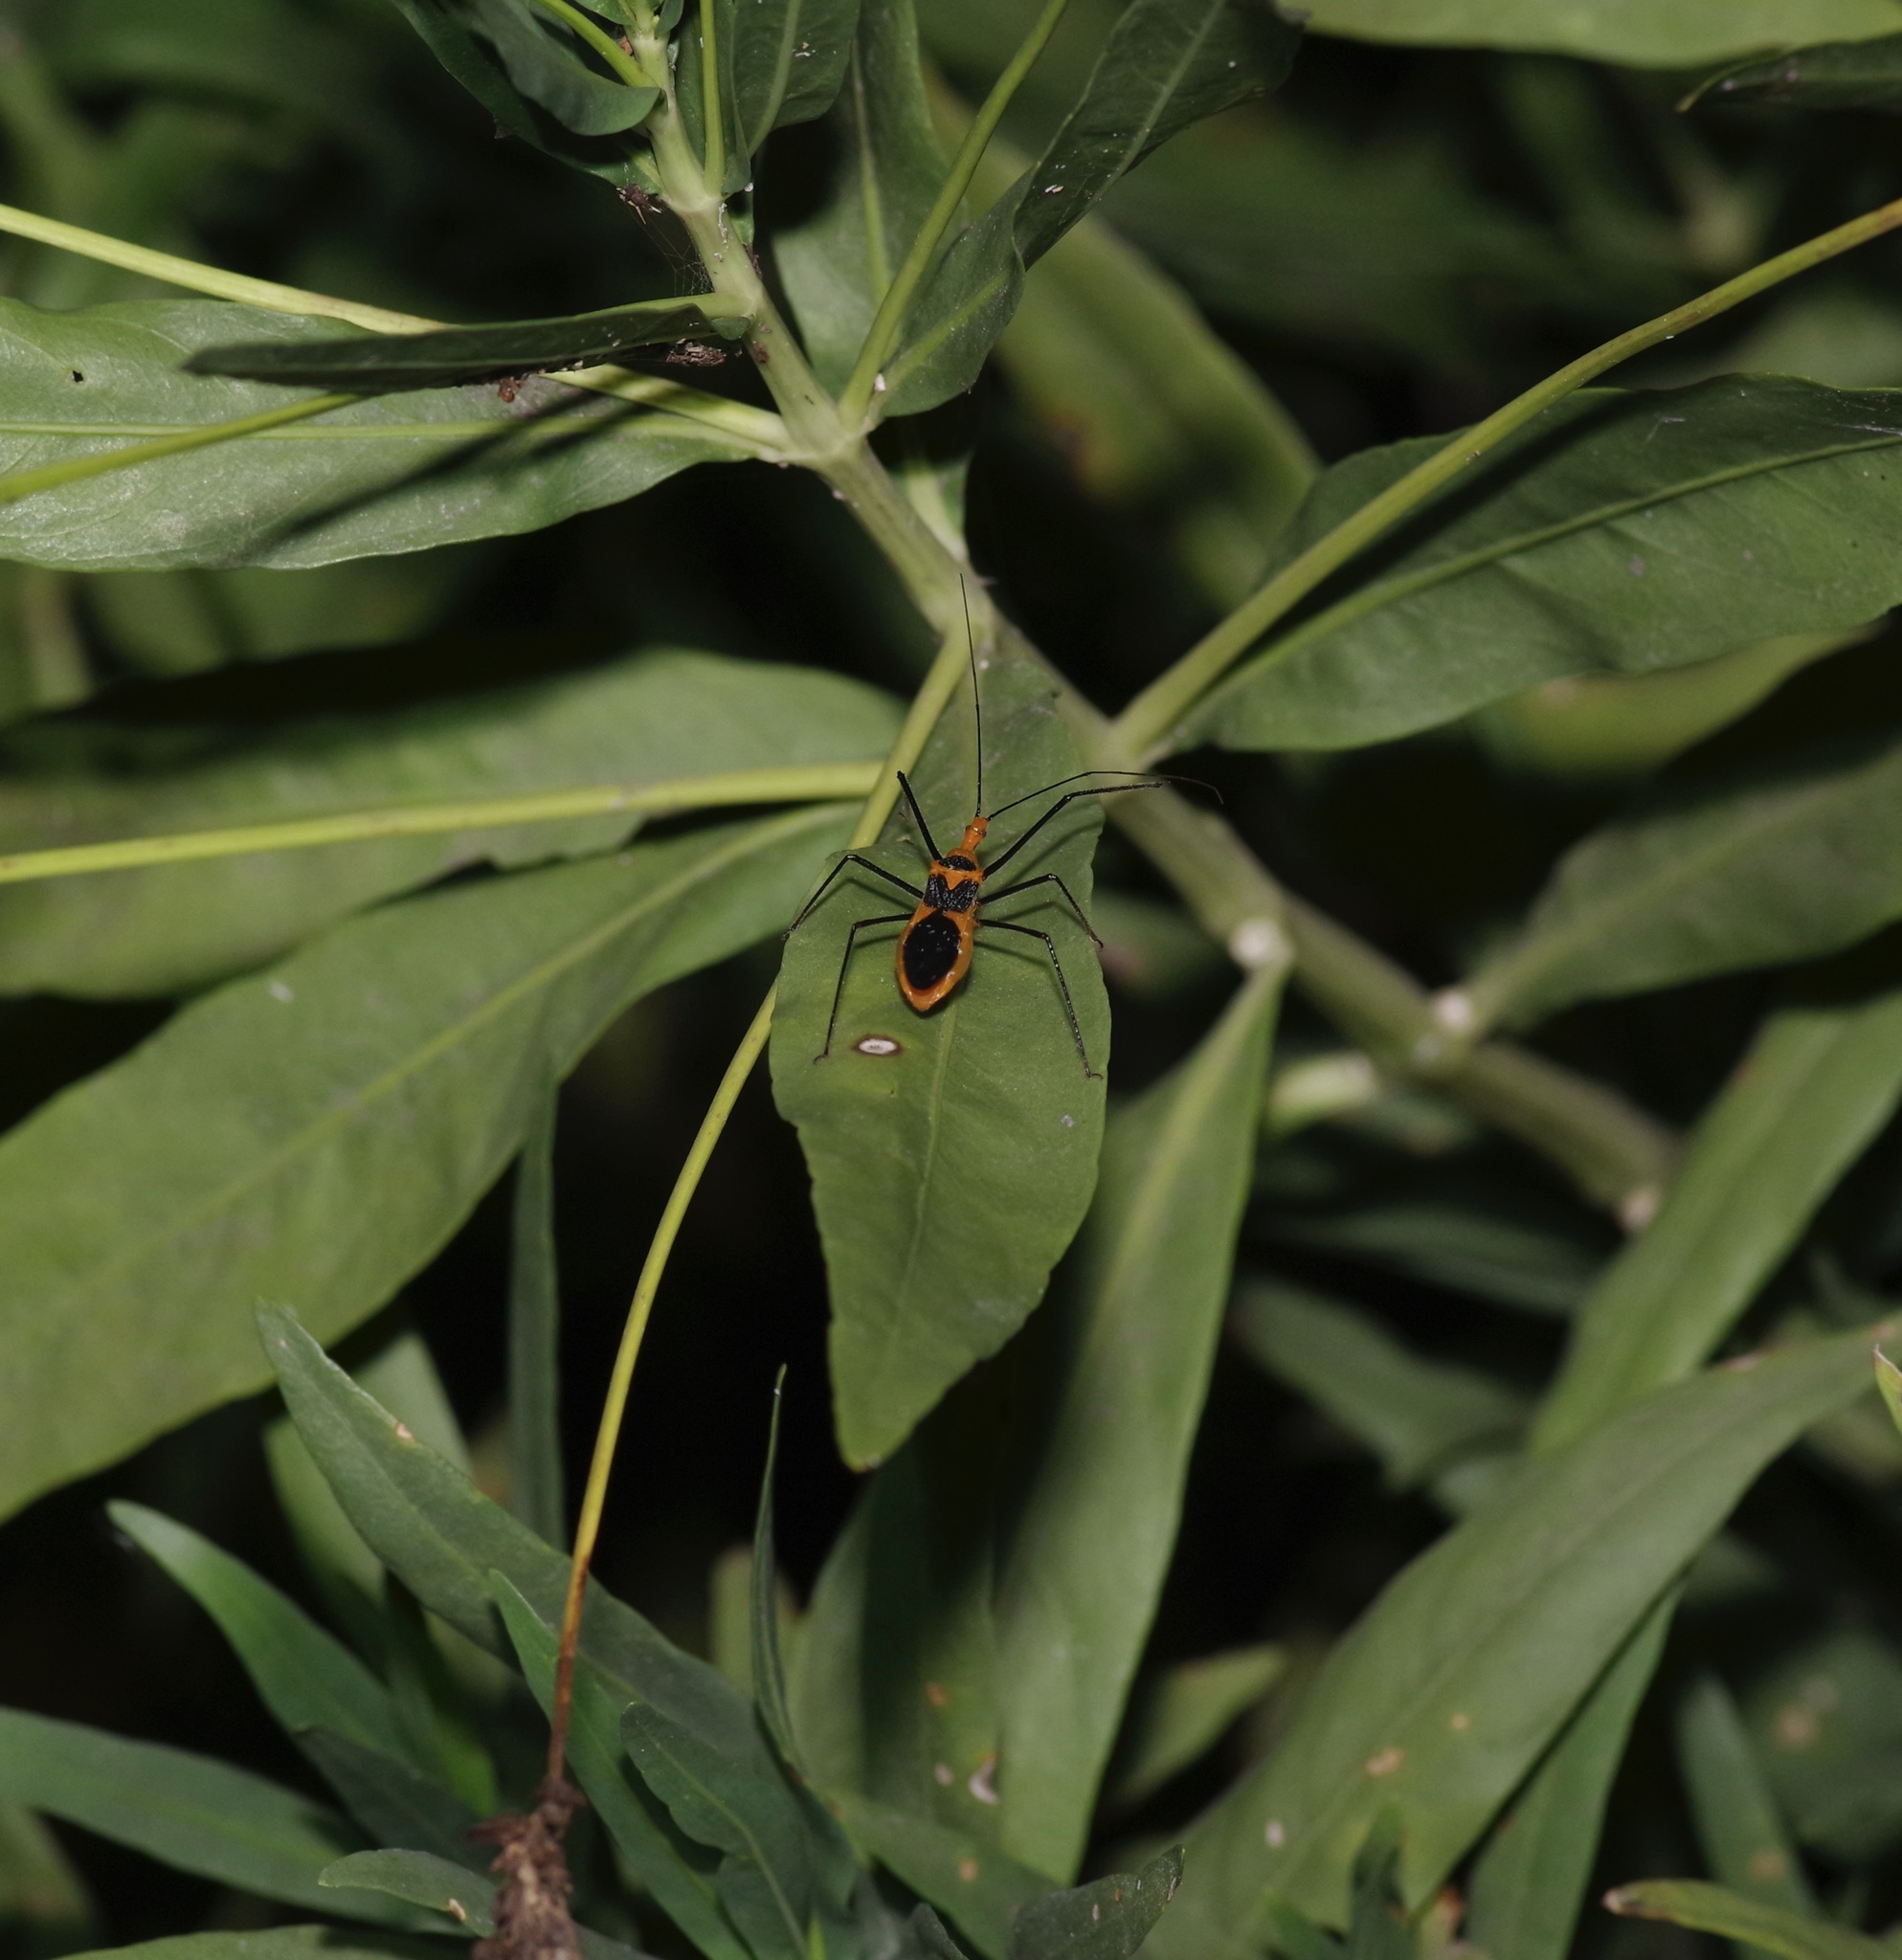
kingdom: Animalia
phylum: Arthropoda
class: Insecta
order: Hemiptera
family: Reduviidae
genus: Zelus
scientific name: Zelus longipes
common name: Milkweed assassin bug
